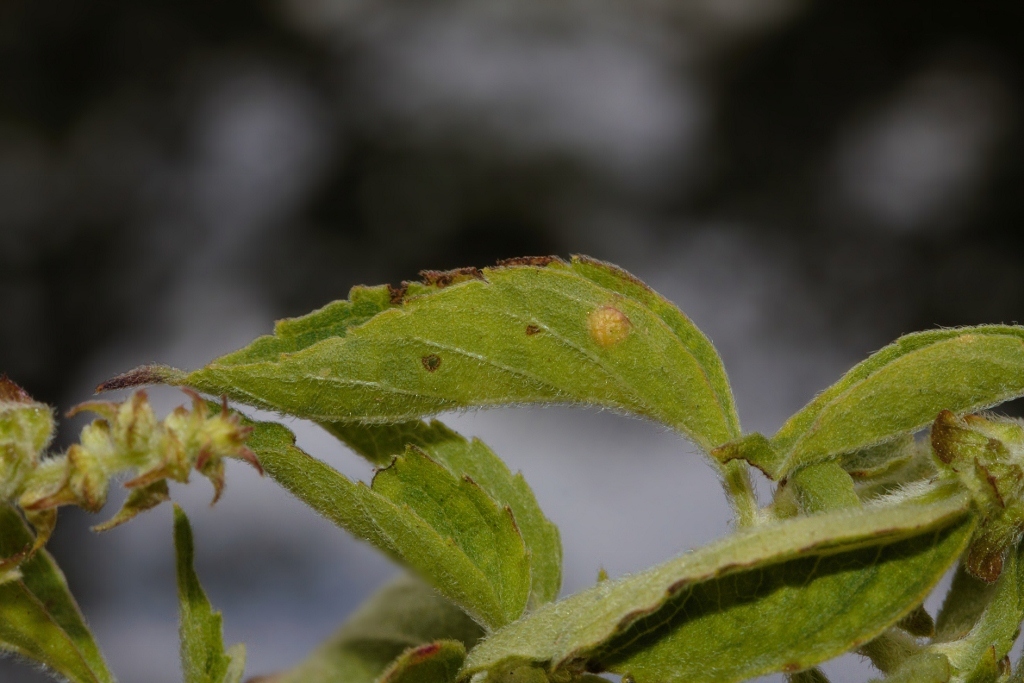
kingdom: Plantae
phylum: Tracheophyta
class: Magnoliopsida
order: Lamiales
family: Lamiaceae
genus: Ocimum
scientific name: Ocimum gratissimum
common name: African basil
